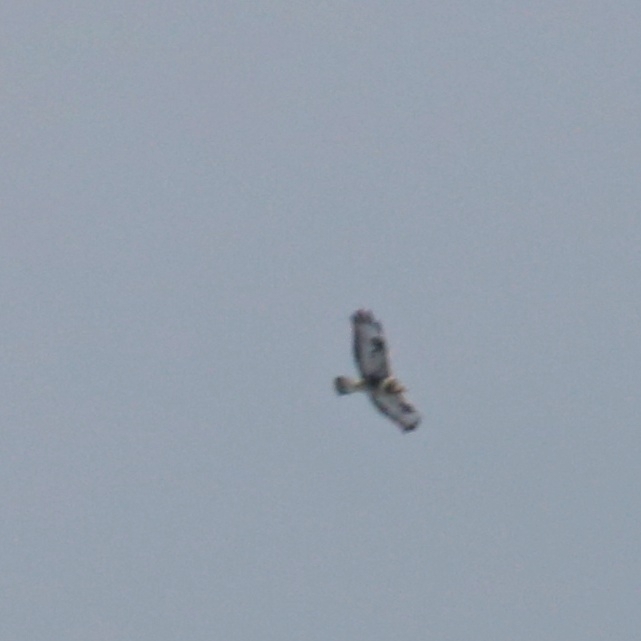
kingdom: Animalia
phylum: Chordata
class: Aves
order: Accipitriformes
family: Accipitridae
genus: Buteo
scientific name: Buteo lagopus
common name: Rough-legged buzzard
